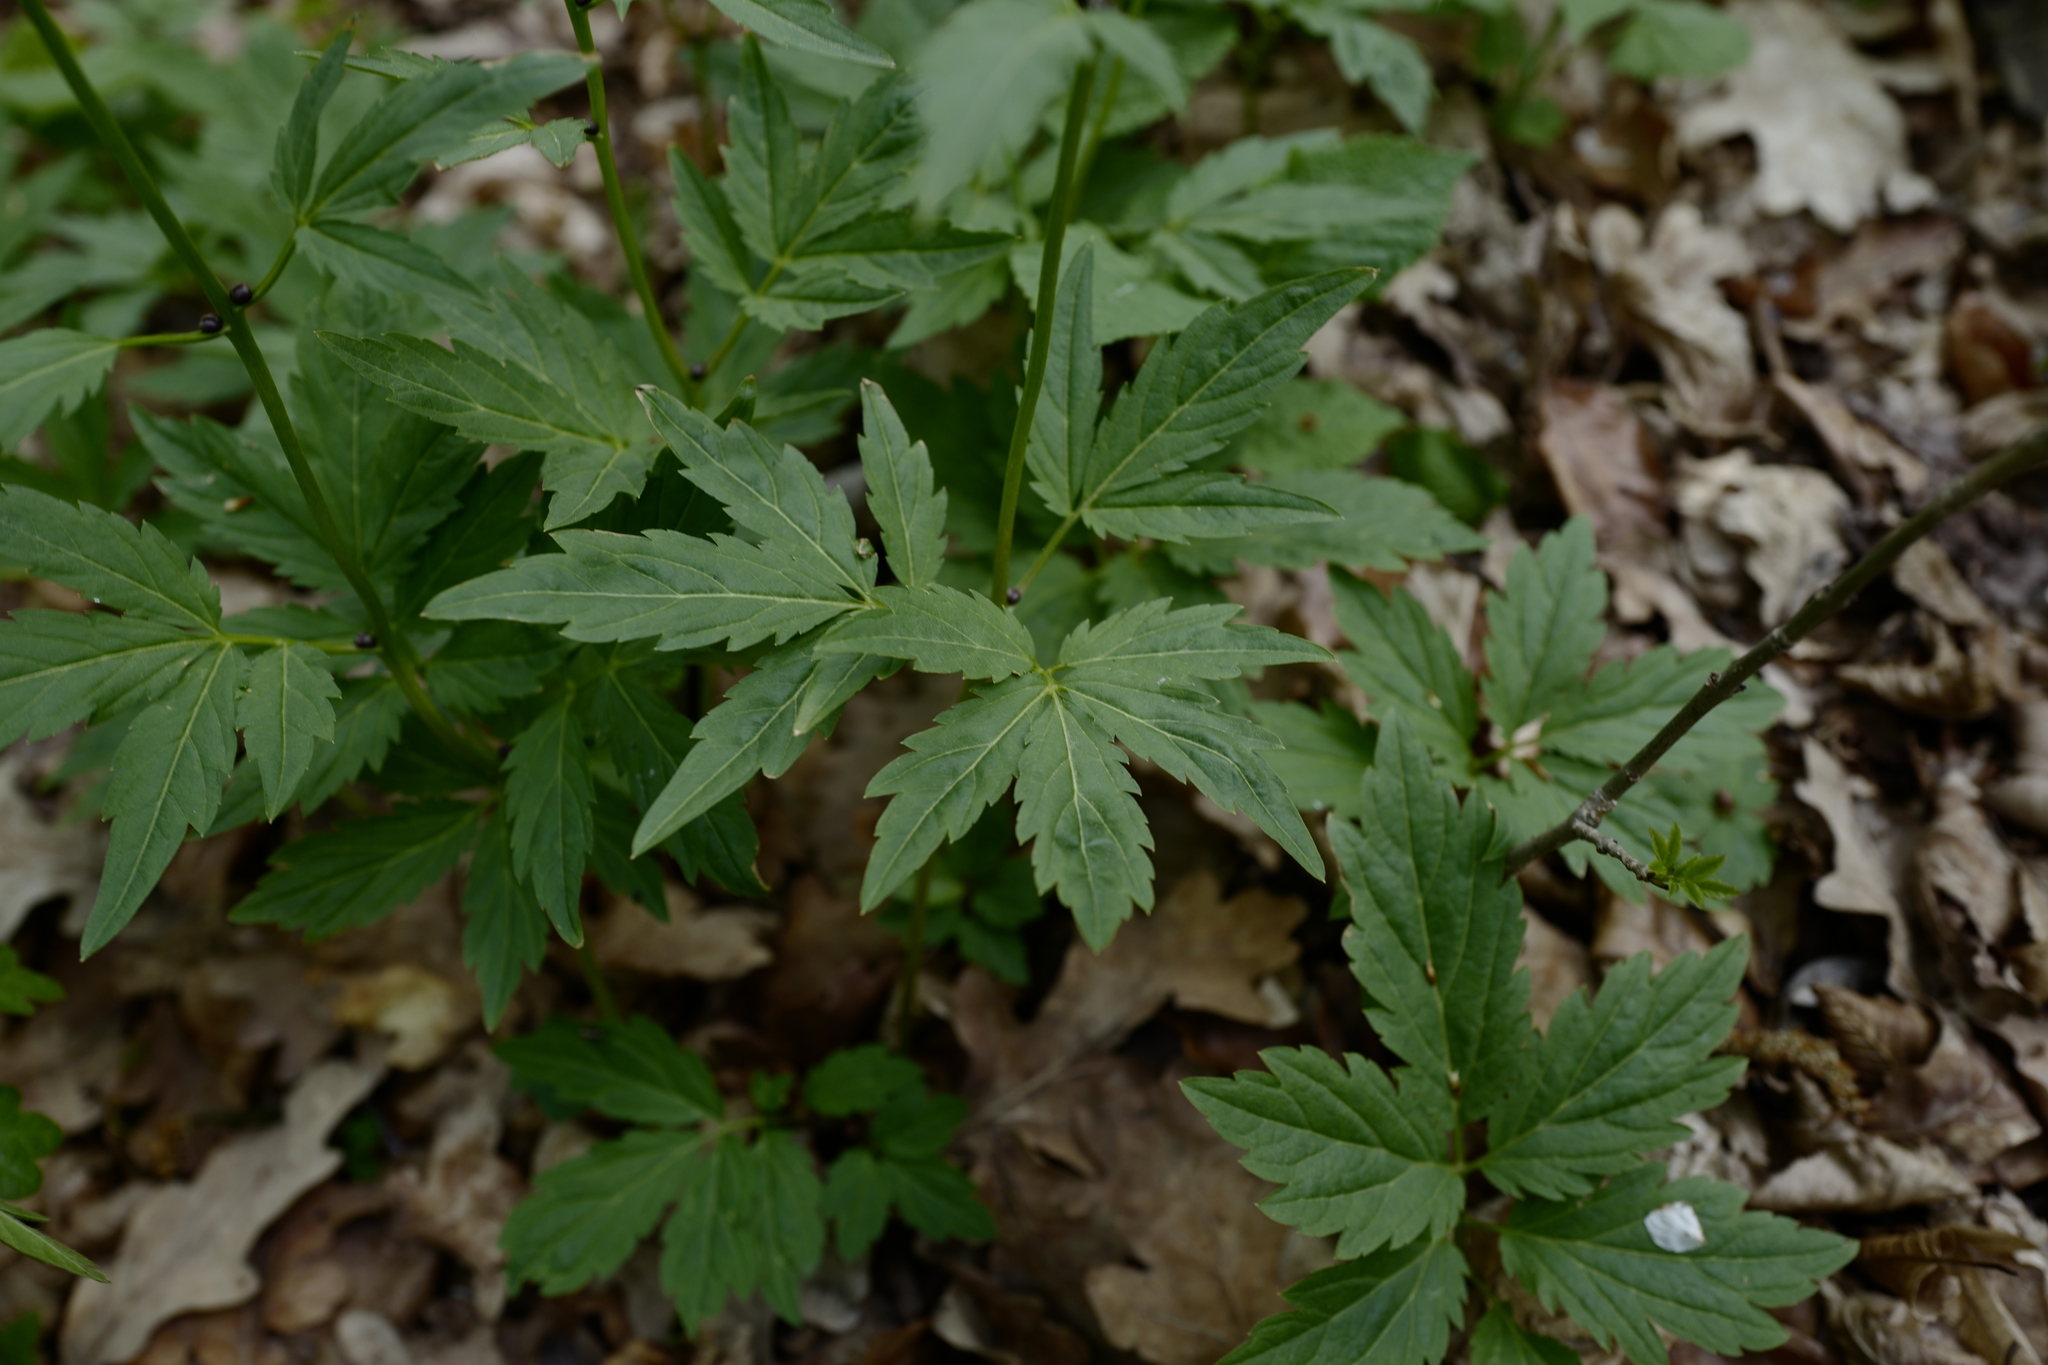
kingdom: Plantae
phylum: Tracheophyta
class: Magnoliopsida
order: Brassicales
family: Brassicaceae
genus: Cardamine
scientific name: Cardamine bulbifera
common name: Coralroot bittercress
